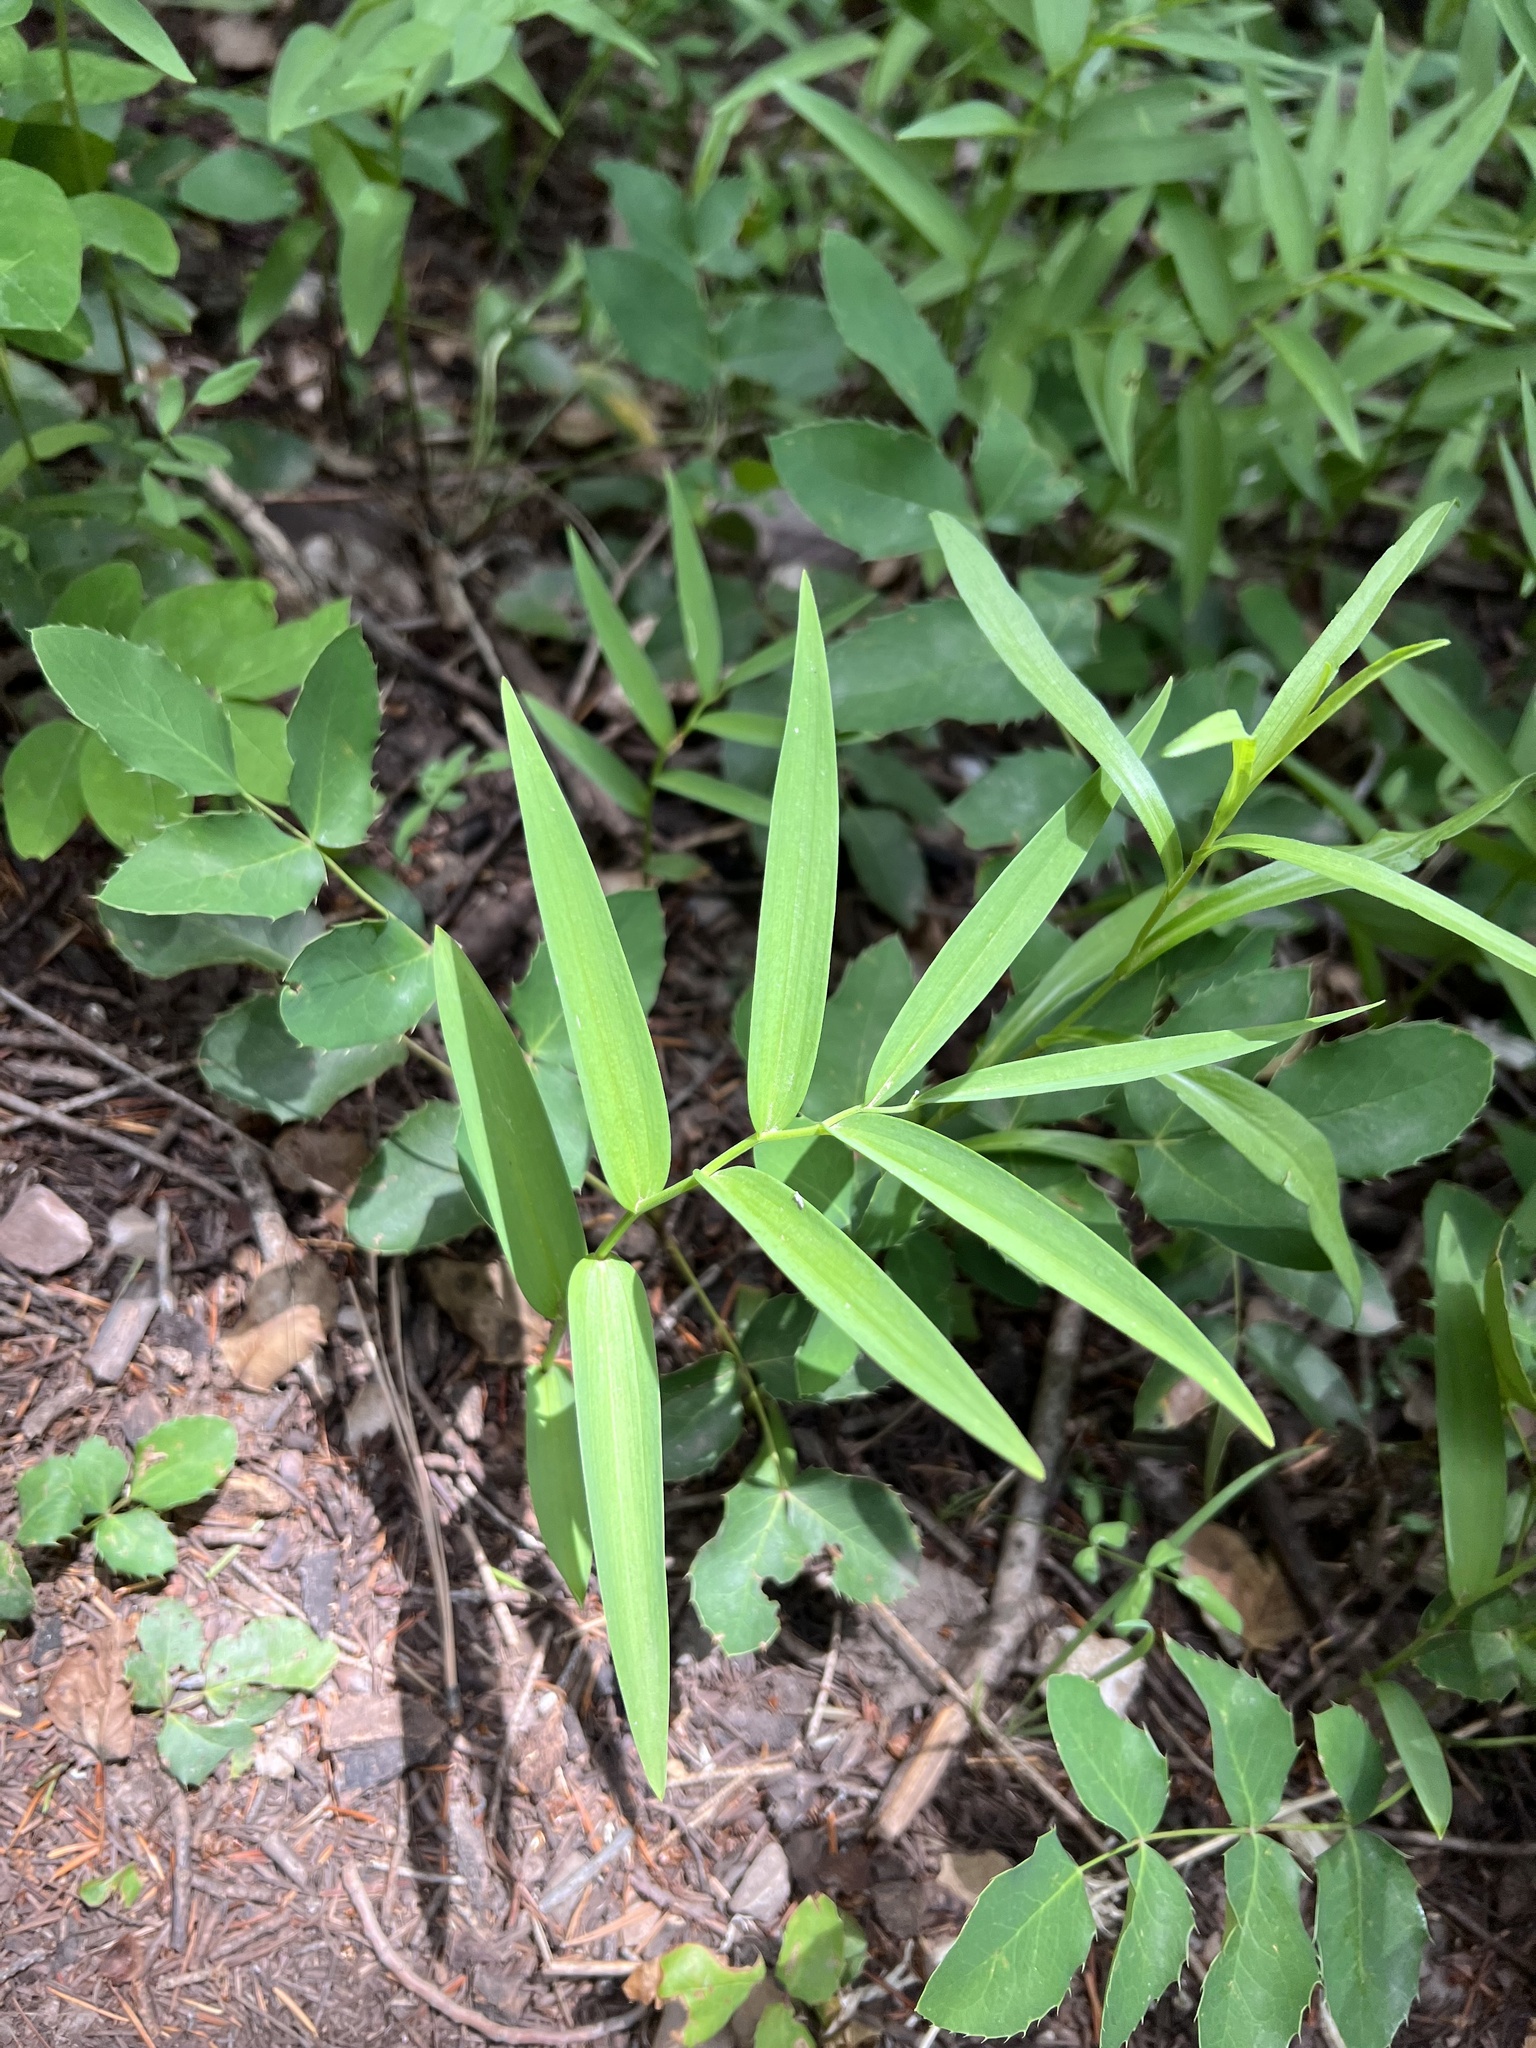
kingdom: Plantae
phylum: Tracheophyta
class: Liliopsida
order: Asparagales
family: Asparagaceae
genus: Maianthemum
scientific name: Maianthemum stellatum
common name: Little false solomon's seal
